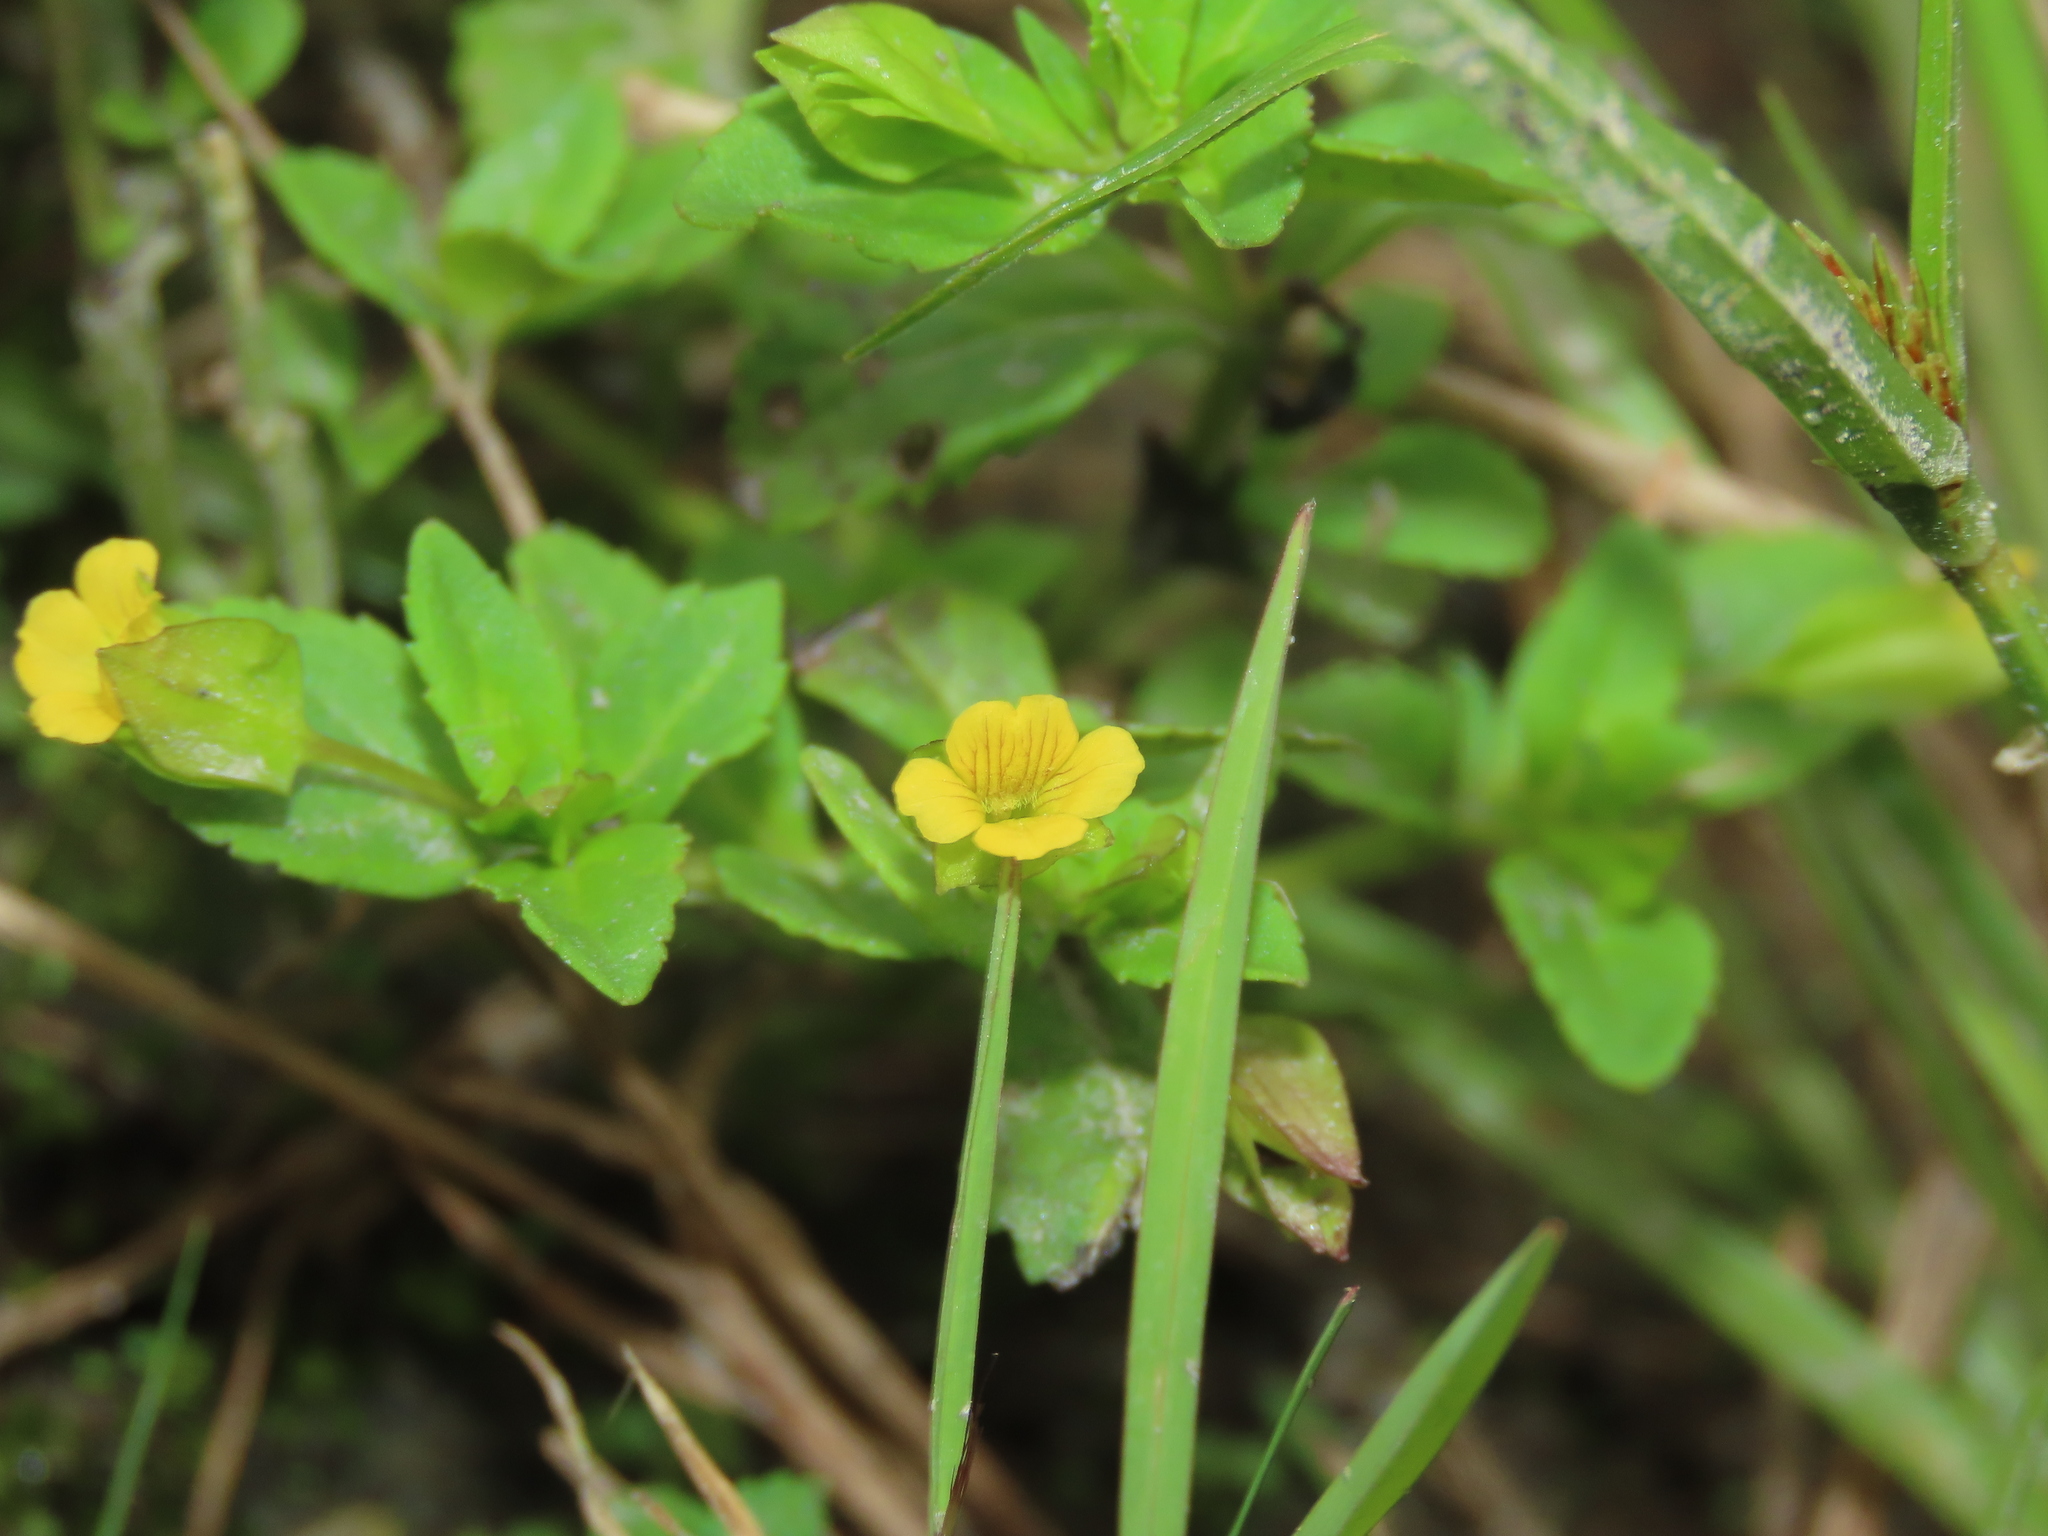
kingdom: Plantae
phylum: Tracheophyta
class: Magnoliopsida
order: Lamiales
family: Plantaginaceae
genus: Mecardonia
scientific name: Mecardonia procumbens
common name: Baby jump-up
